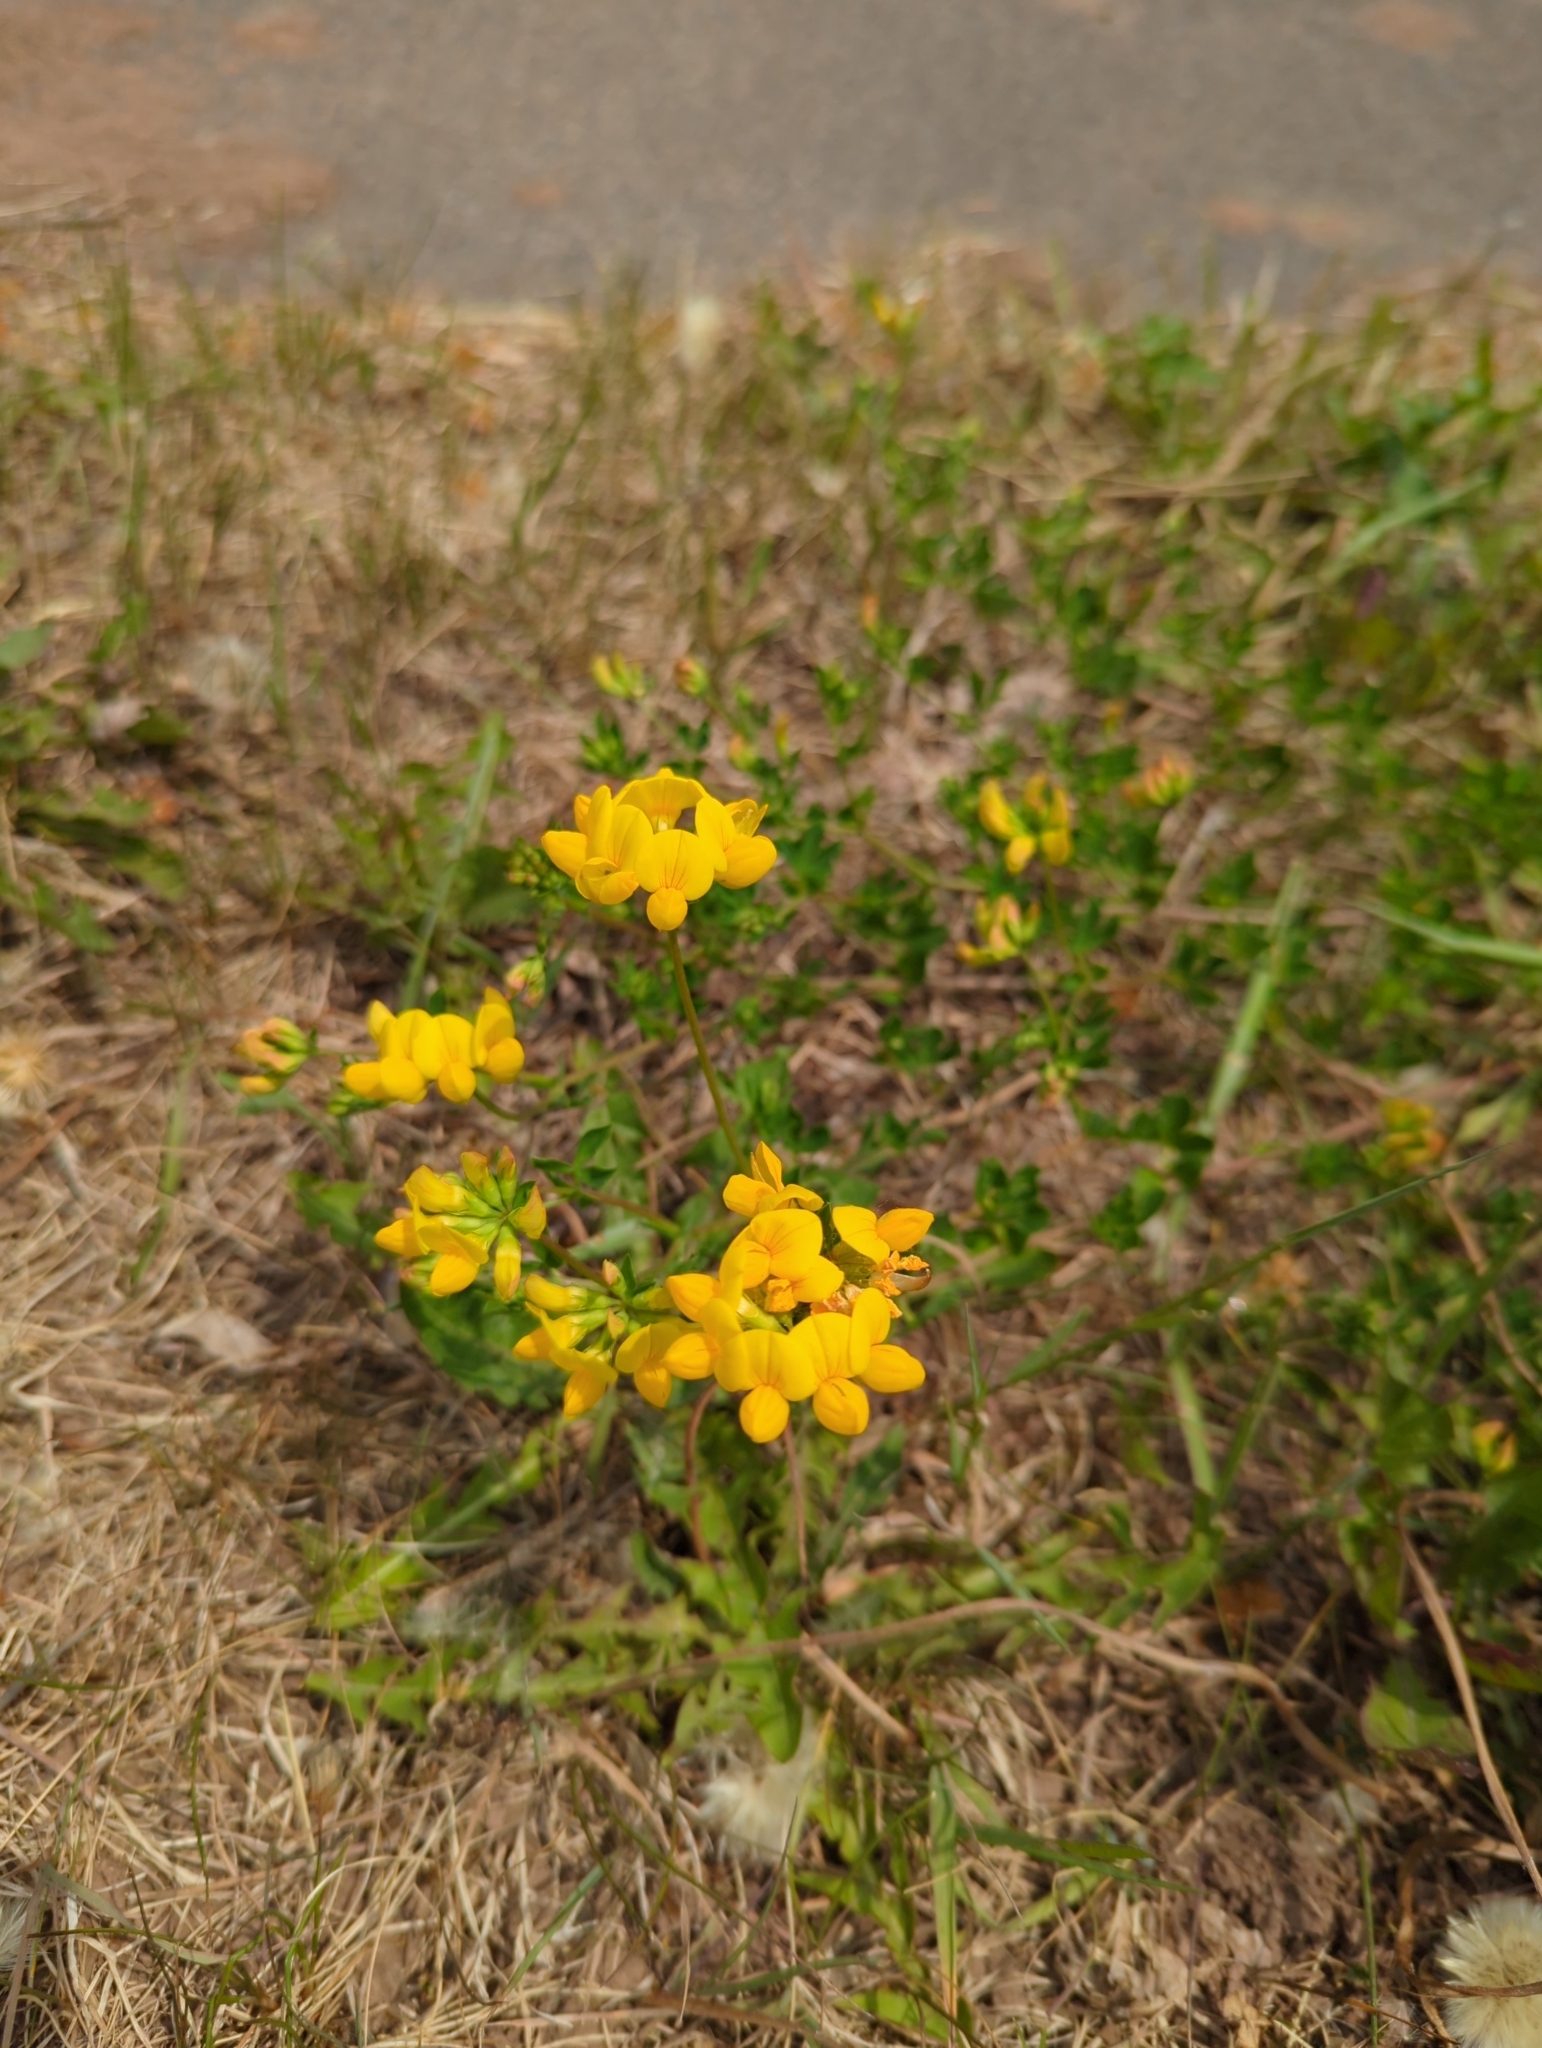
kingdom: Plantae
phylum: Tracheophyta
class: Magnoliopsida
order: Fabales
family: Fabaceae
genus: Lotus
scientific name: Lotus corniculatus
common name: Common bird's-foot-trefoil
